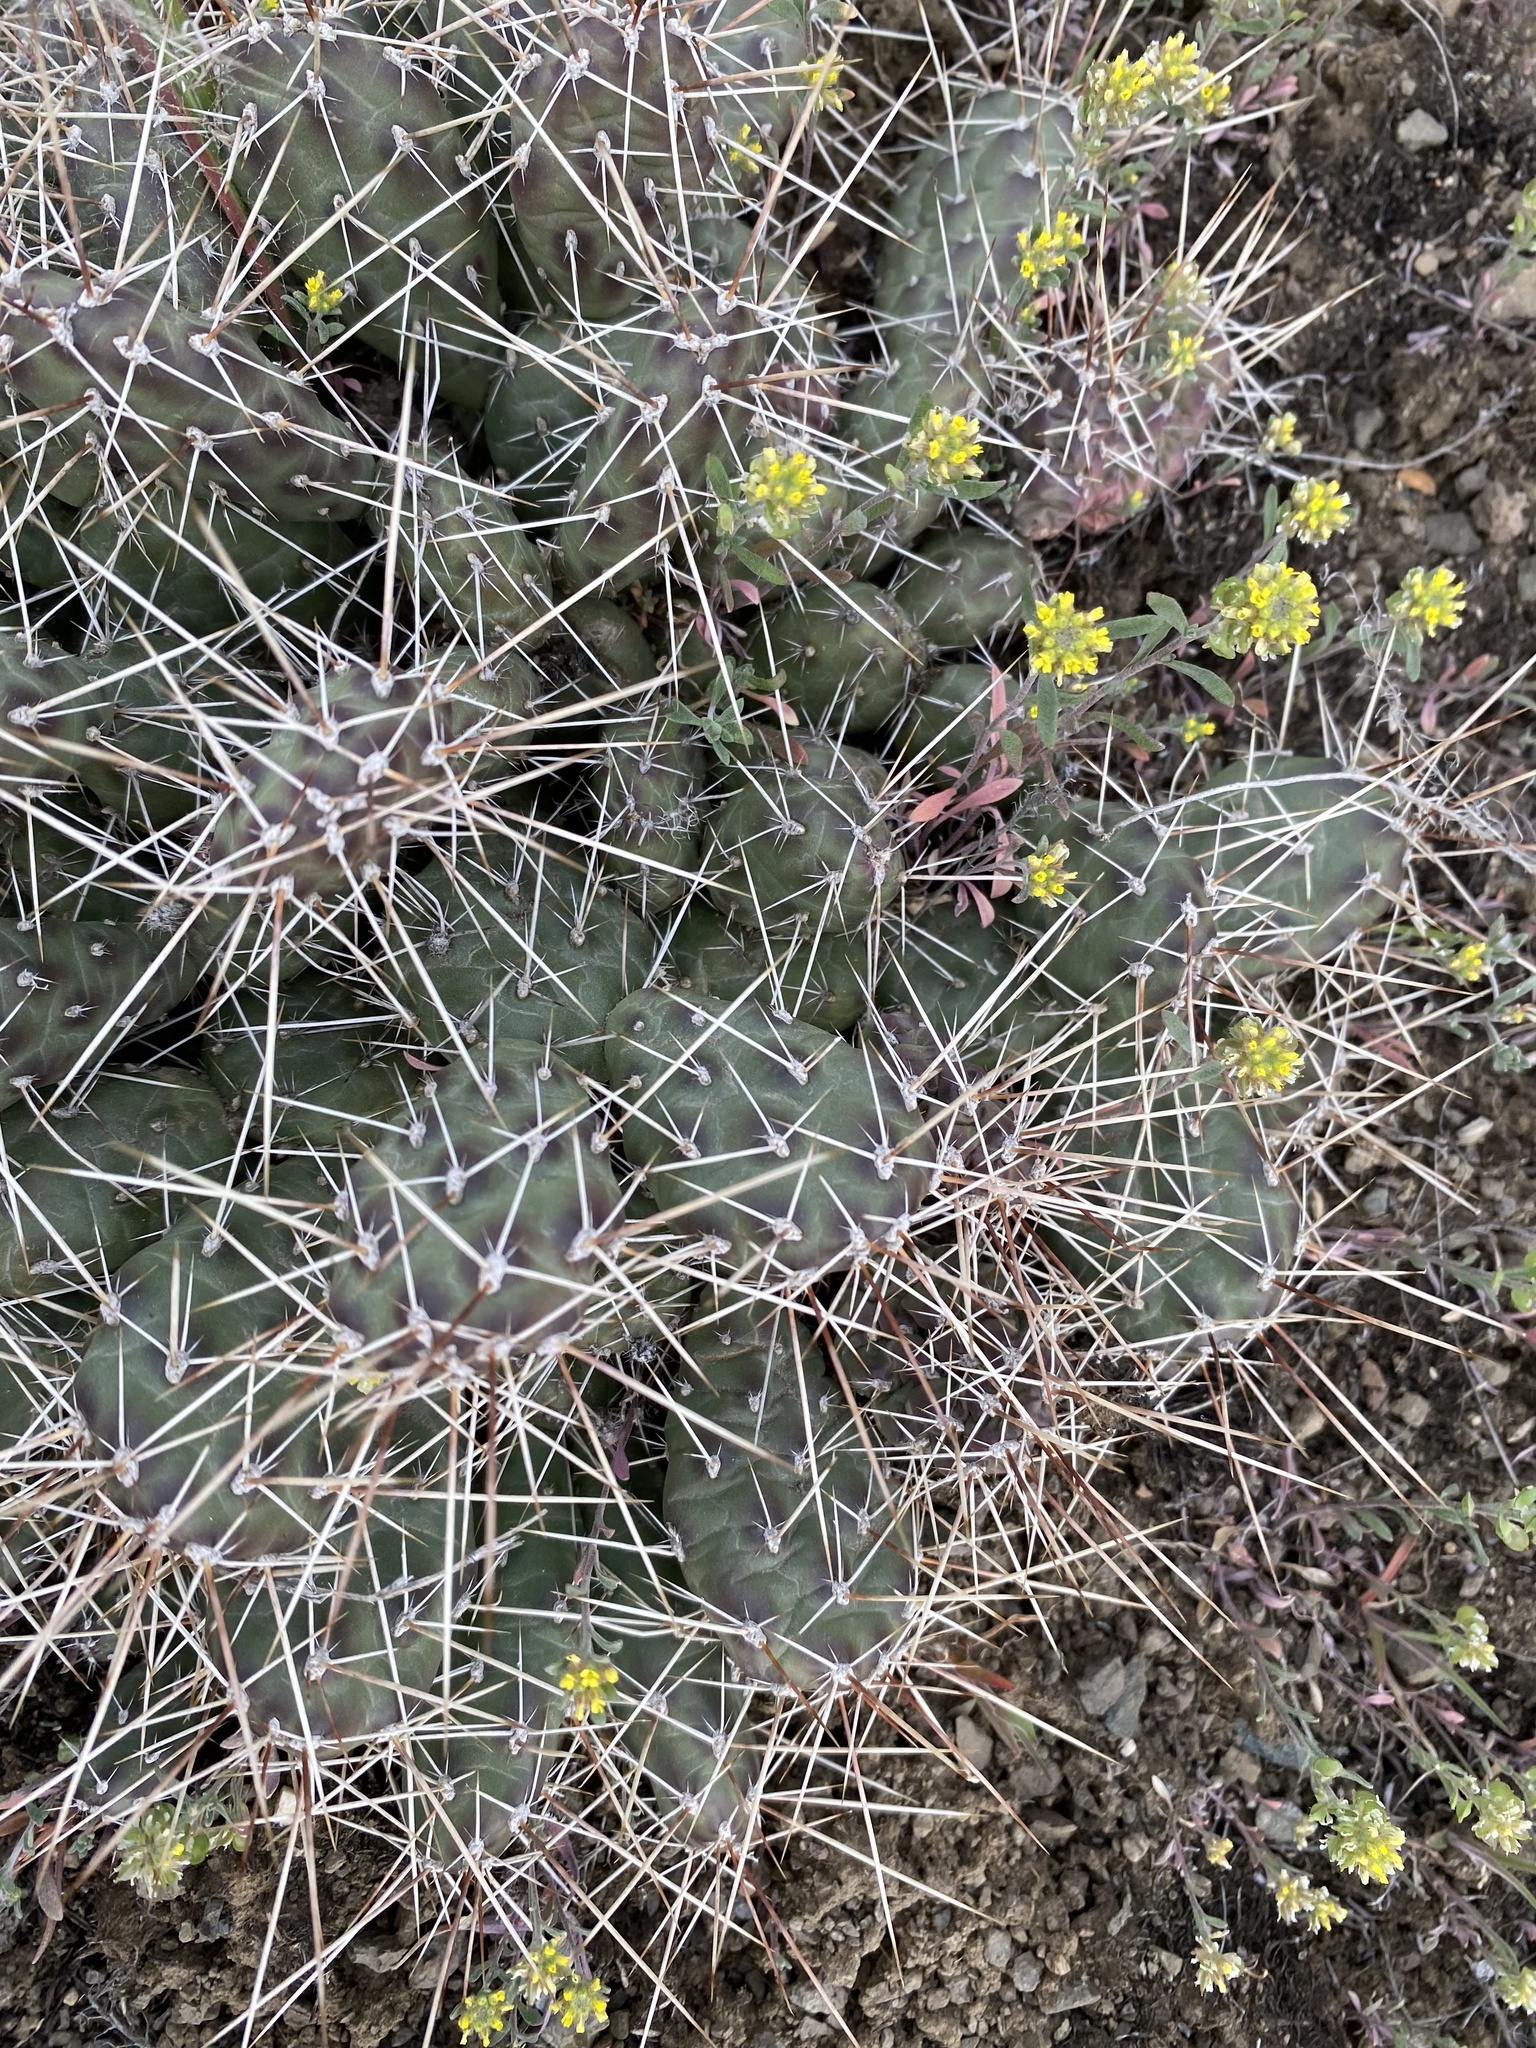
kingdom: Plantae
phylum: Tracheophyta
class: Magnoliopsida
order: Caryophyllales
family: Cactaceae
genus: Opuntia
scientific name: Opuntia fragilis
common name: Brittle cactus
